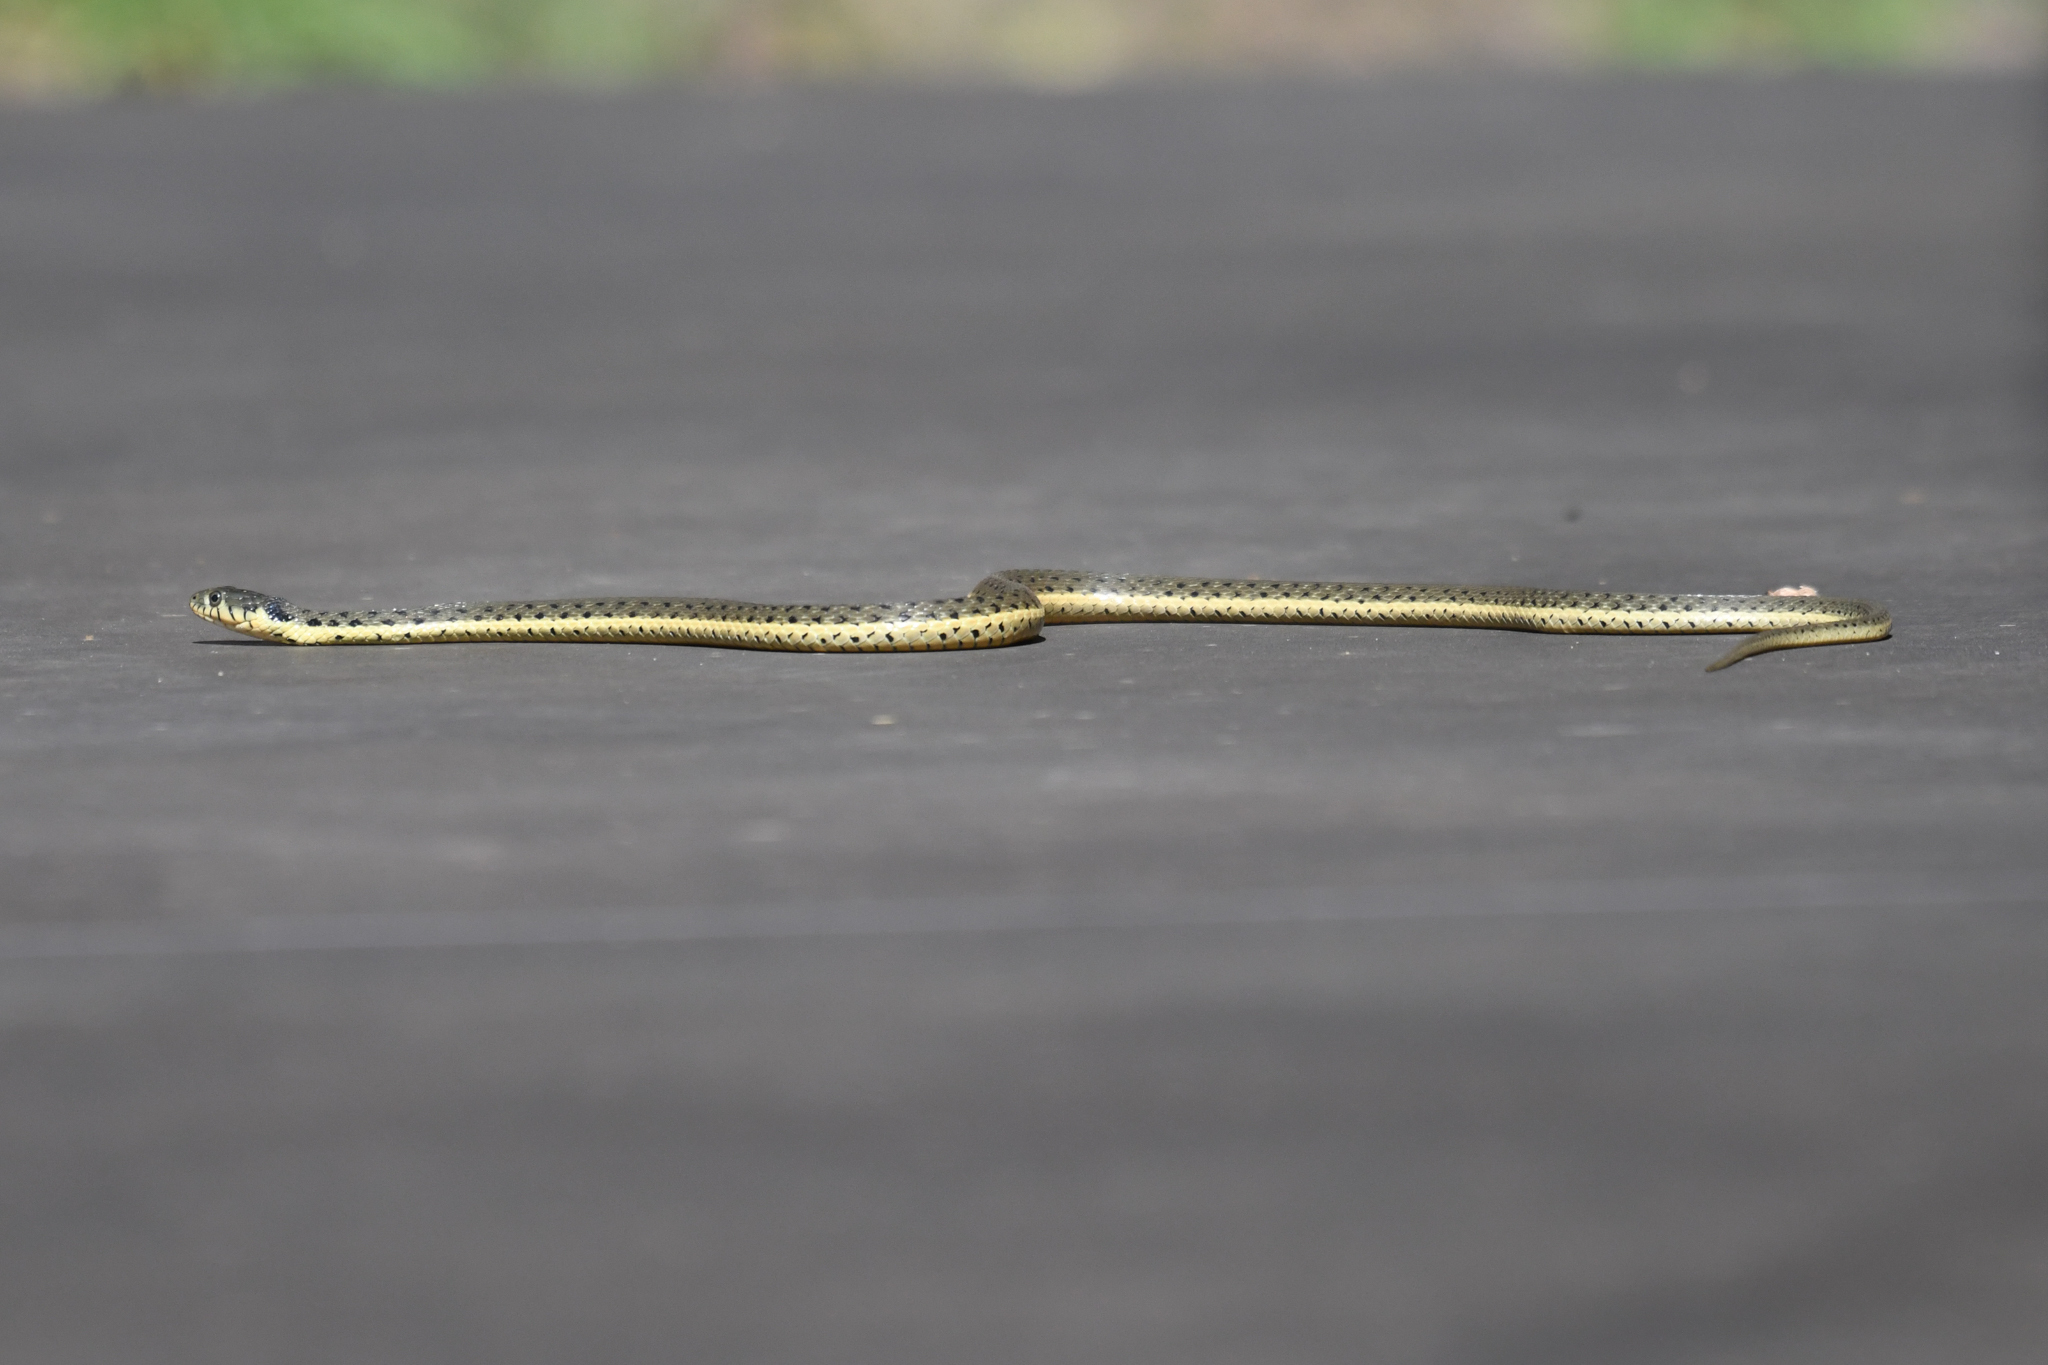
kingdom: Animalia
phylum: Chordata
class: Squamata
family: Colubridae
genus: Thamnophis
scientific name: Thamnophis hammondii
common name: Two-striped garter snake
